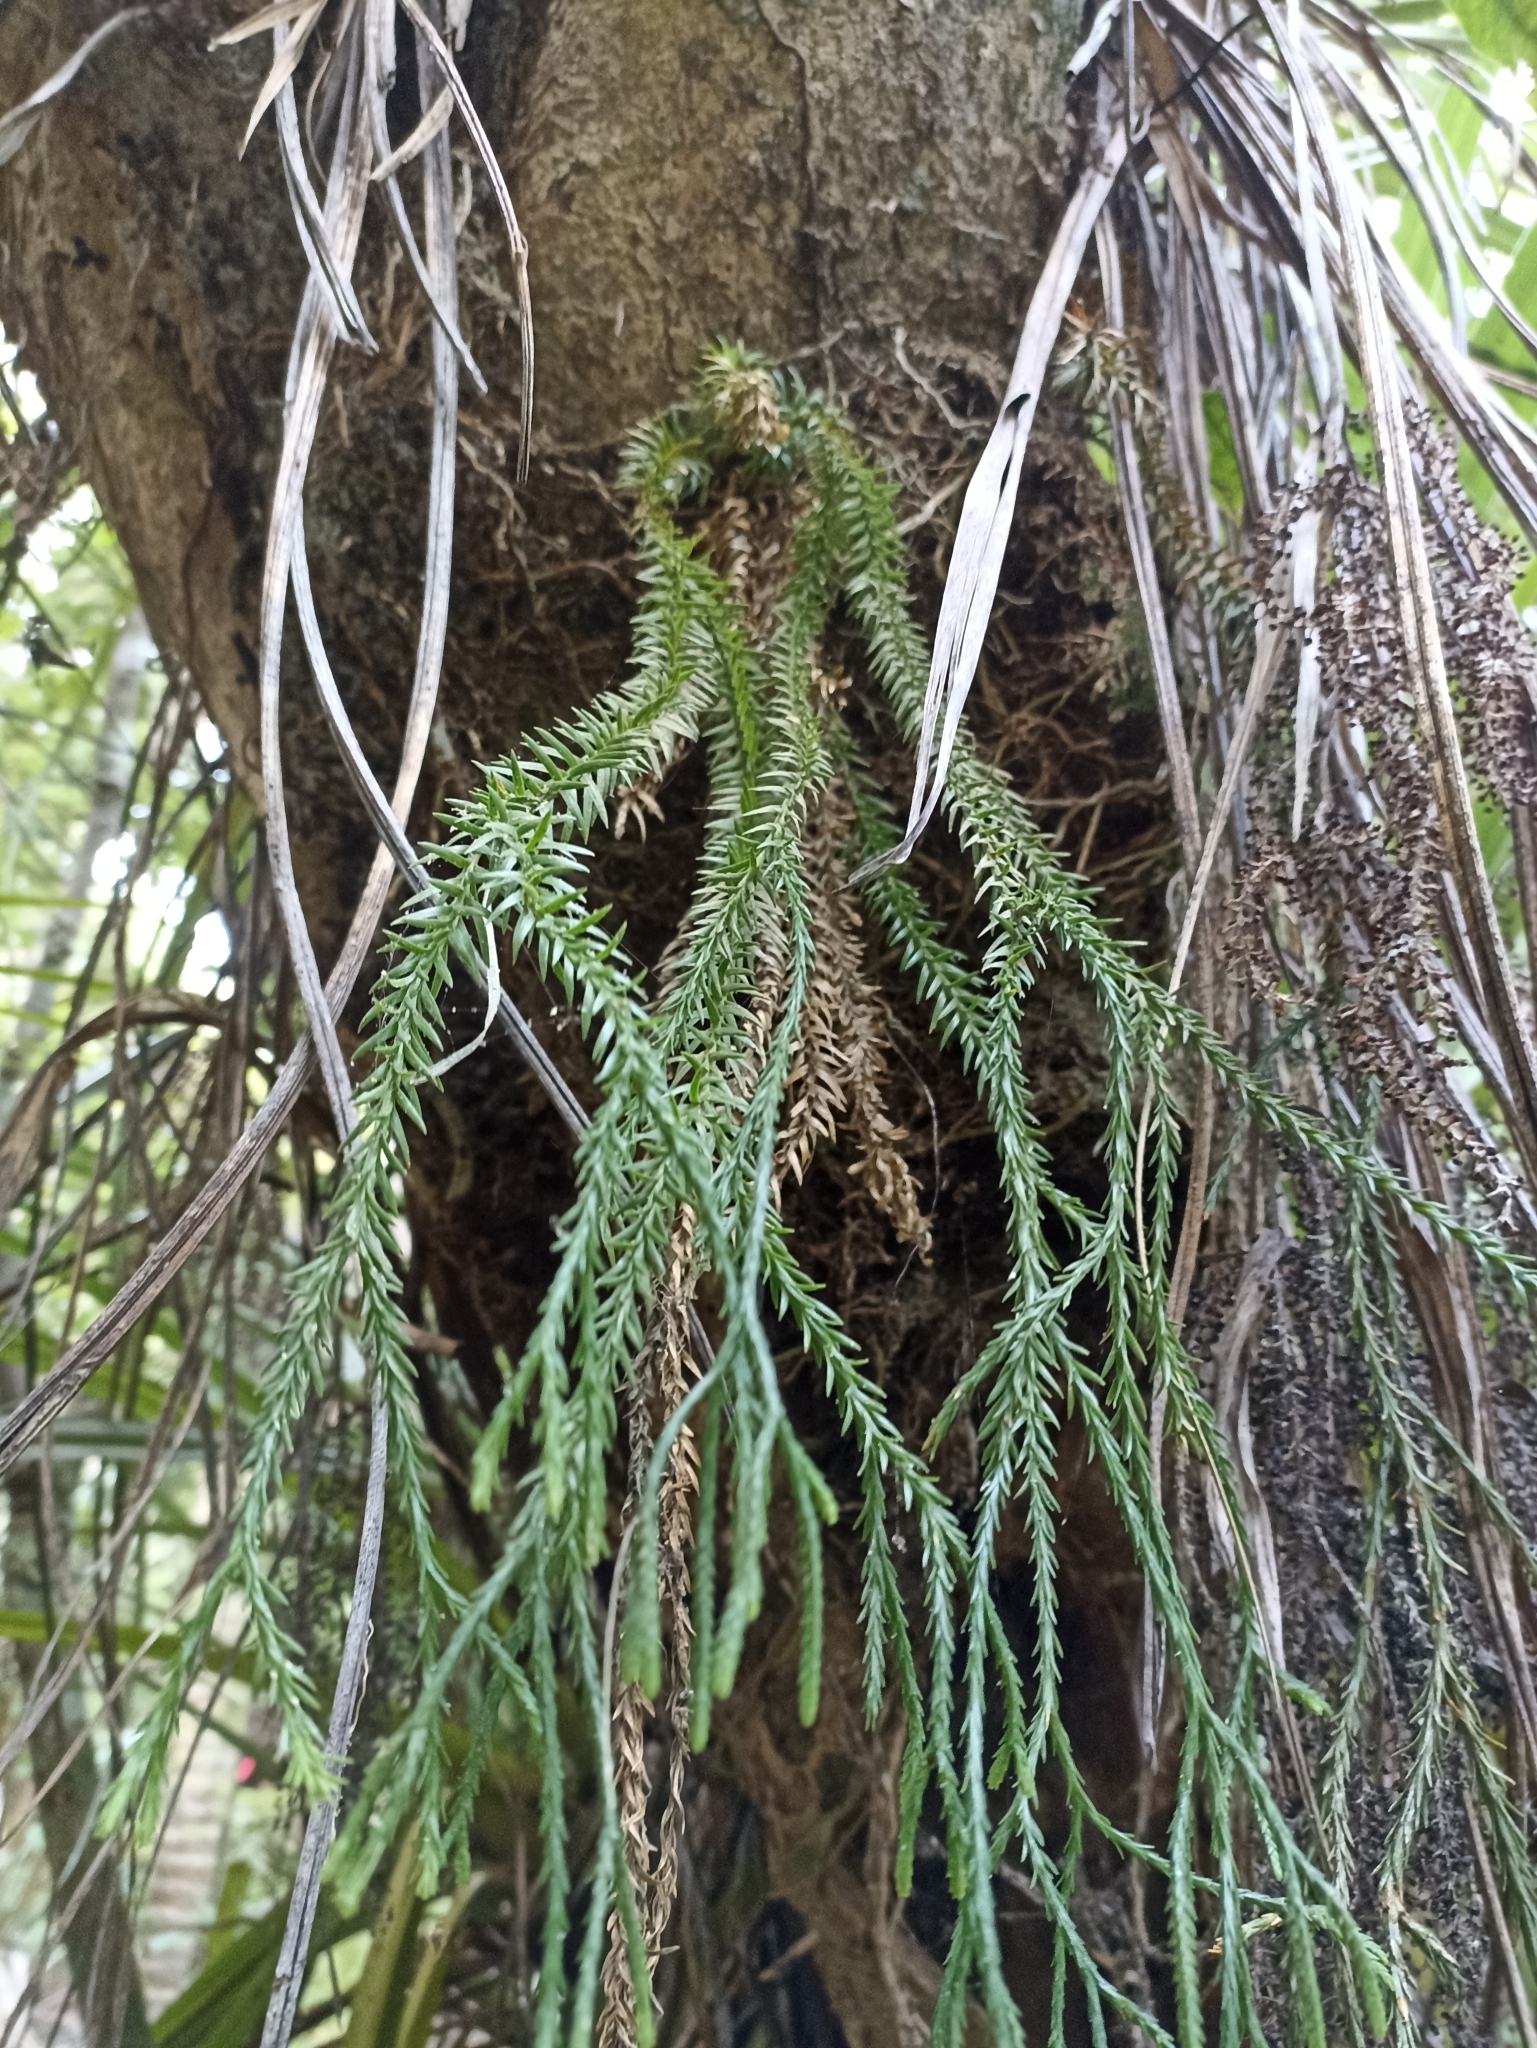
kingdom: Plantae
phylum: Tracheophyta
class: Lycopodiopsida
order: Lycopodiales
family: Lycopodiaceae
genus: Phlegmariurus
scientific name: Phlegmariurus billardierei
